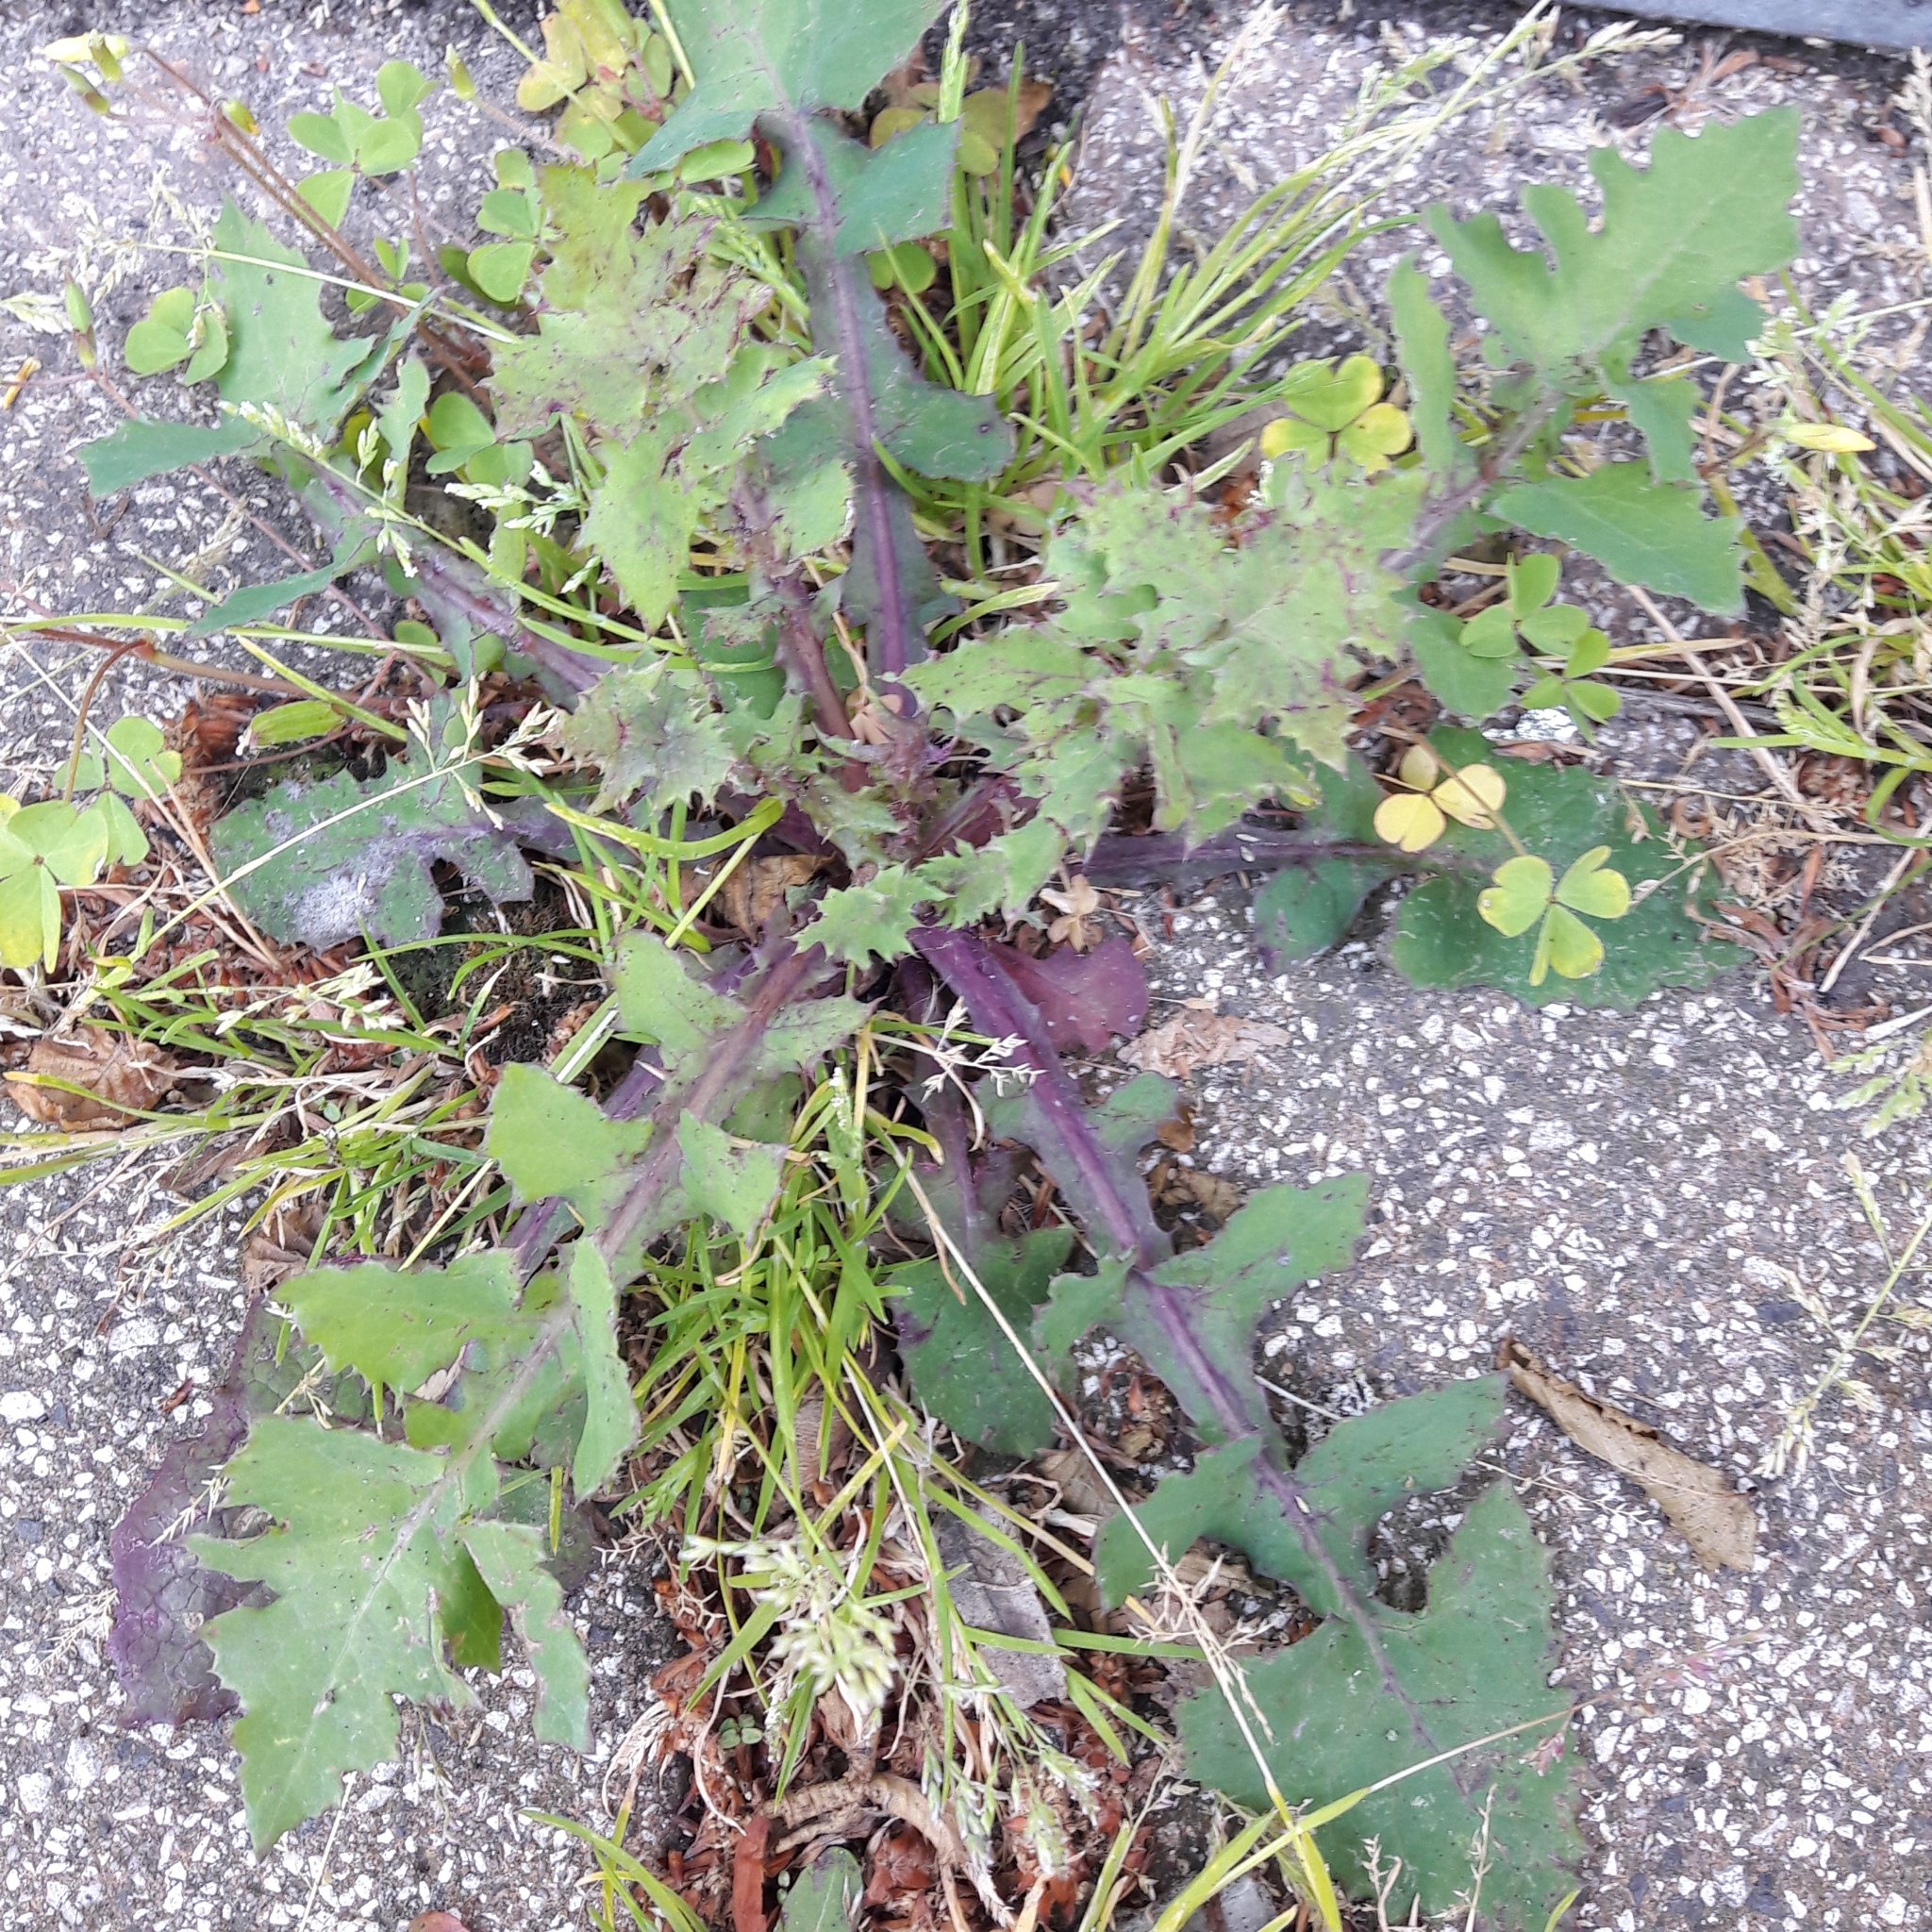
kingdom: Plantae
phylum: Tracheophyta
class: Magnoliopsida
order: Asterales
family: Asteraceae
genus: Sonchus
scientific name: Sonchus oleraceus
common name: Common sowthistle
